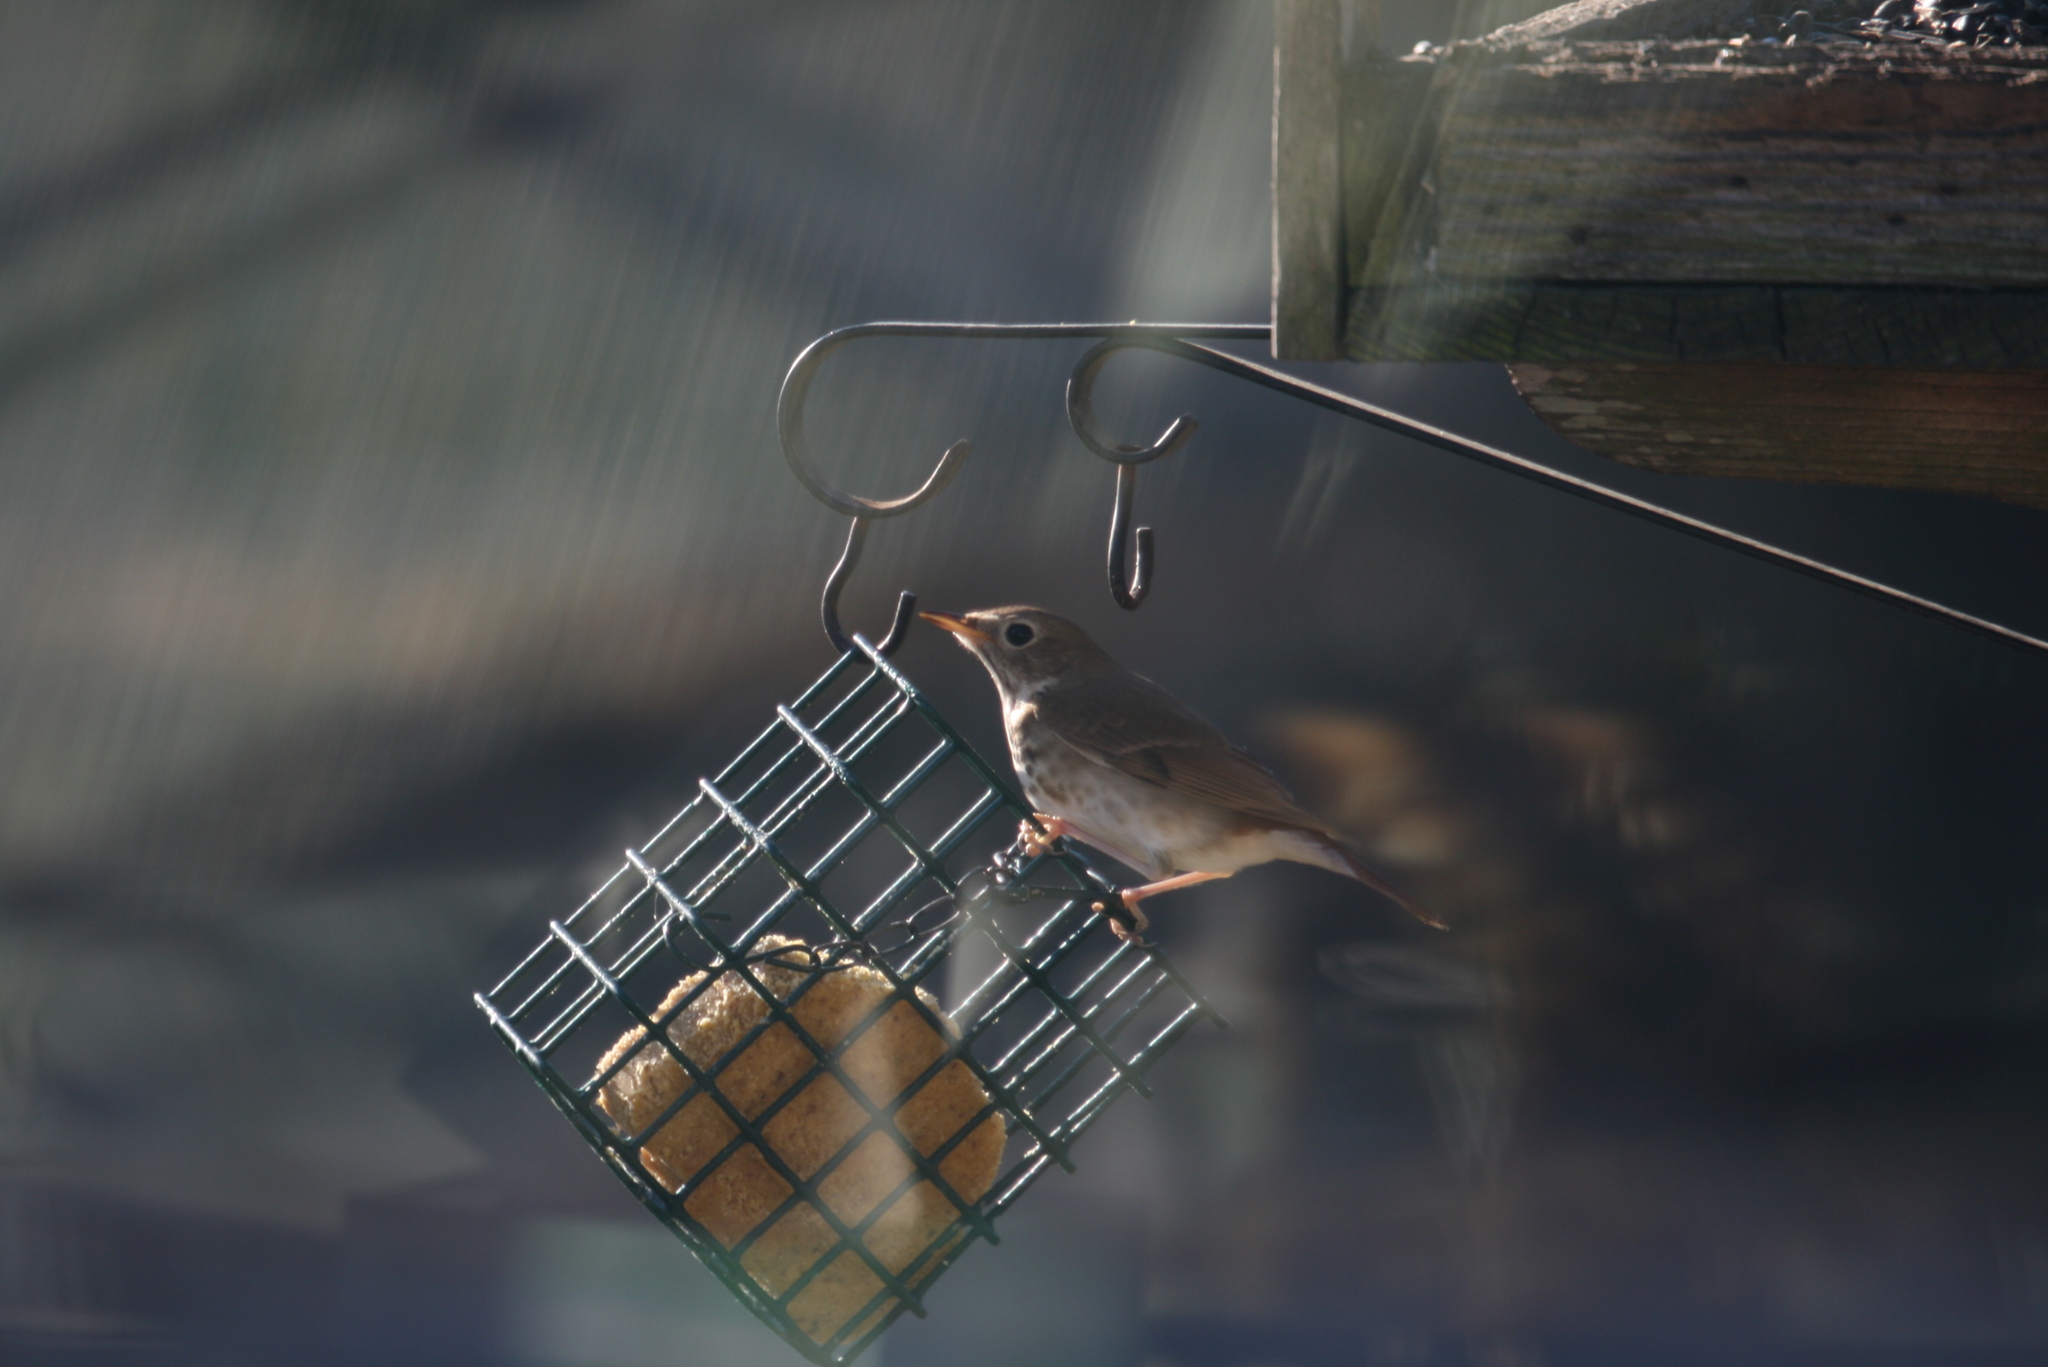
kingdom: Animalia
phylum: Chordata
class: Aves
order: Passeriformes
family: Turdidae
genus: Catharus
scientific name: Catharus guttatus
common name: Hermit thrush
